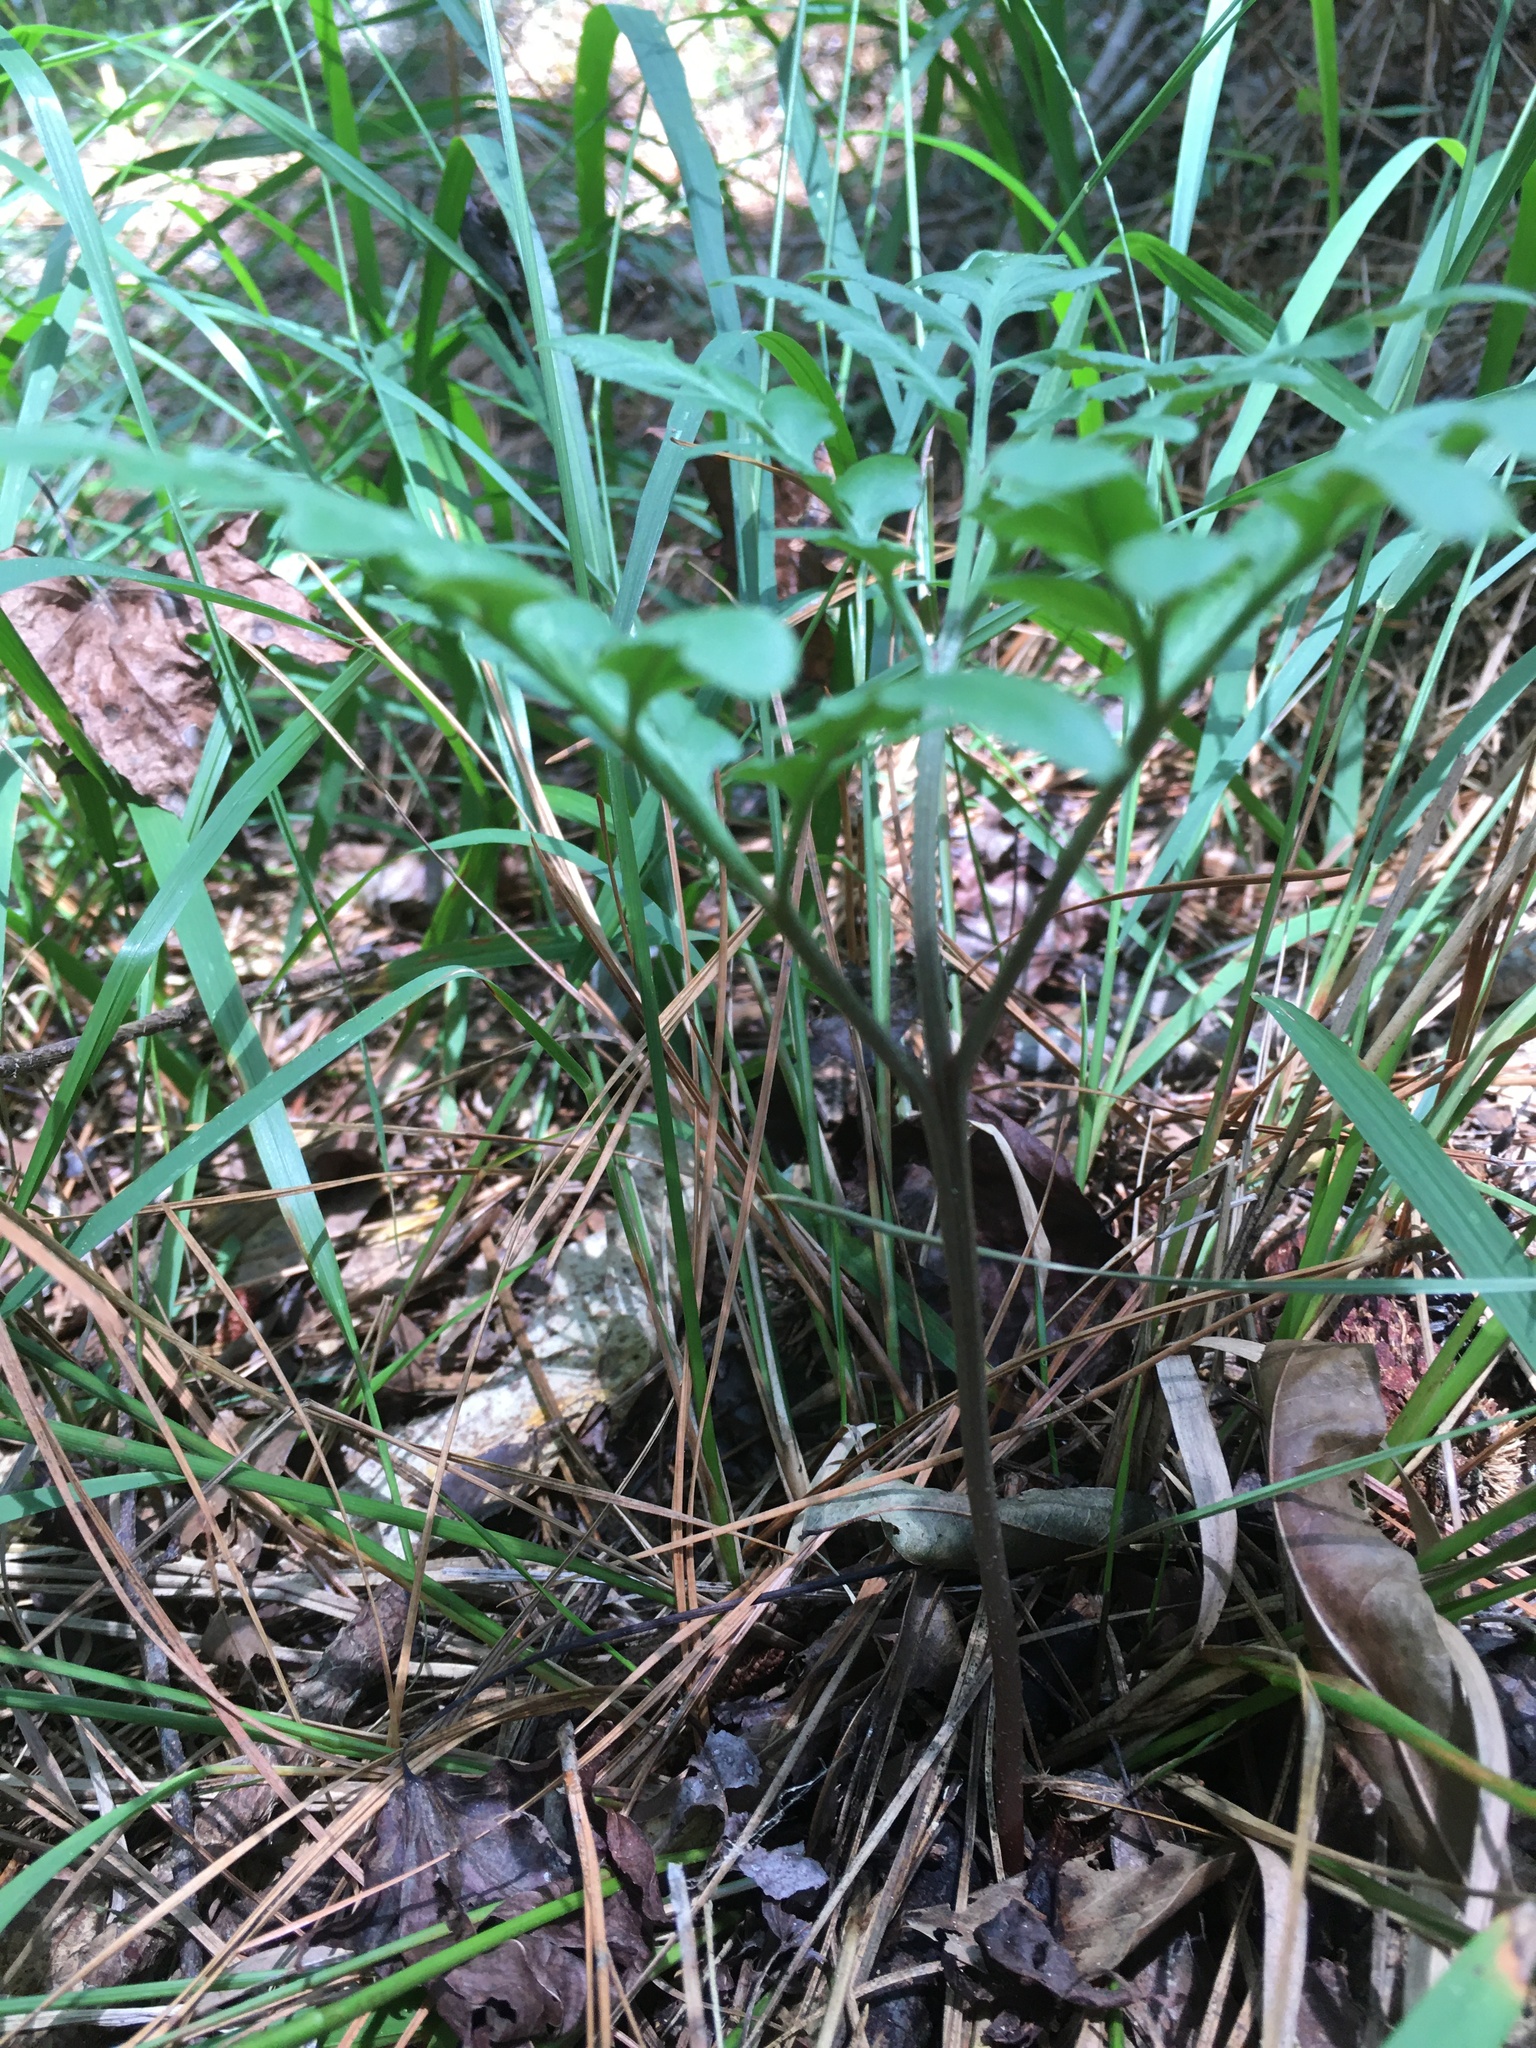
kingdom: Plantae
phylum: Tracheophyta
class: Polypodiopsida
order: Ophioglossales
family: Ophioglossaceae
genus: Sceptridium
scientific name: Sceptridium dissectum
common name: Cut-leaved grapefern
